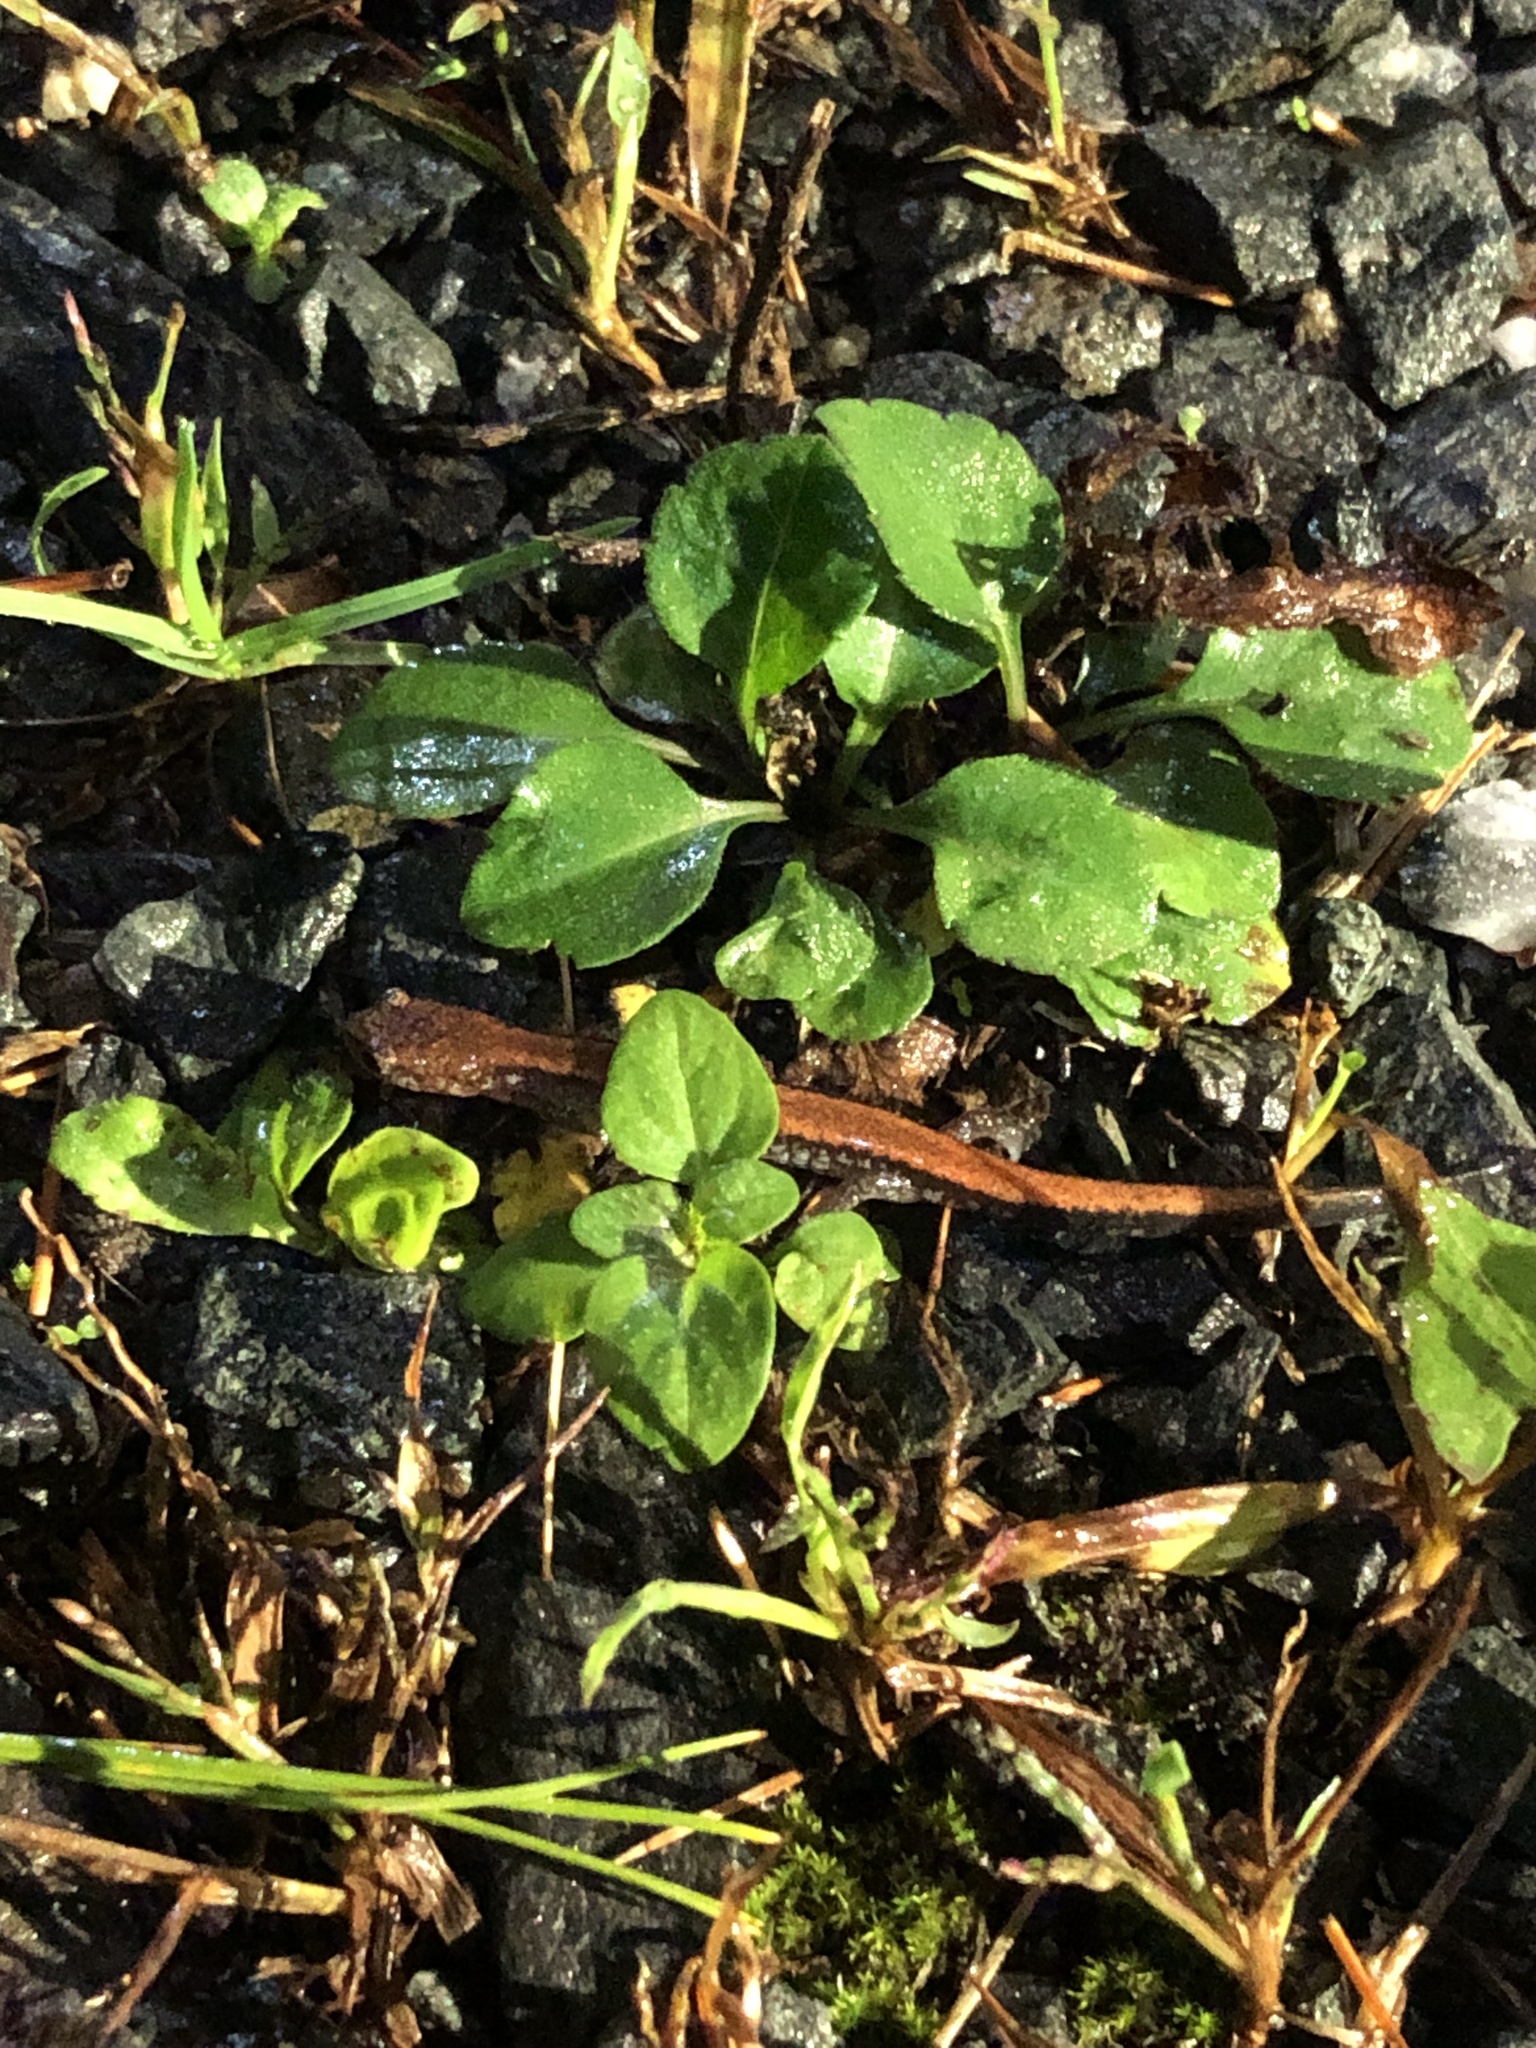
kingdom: Animalia
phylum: Chordata
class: Amphibia
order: Caudata
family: Plethodontidae
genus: Plethodon
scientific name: Plethodon cinereus
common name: Redback salamander
